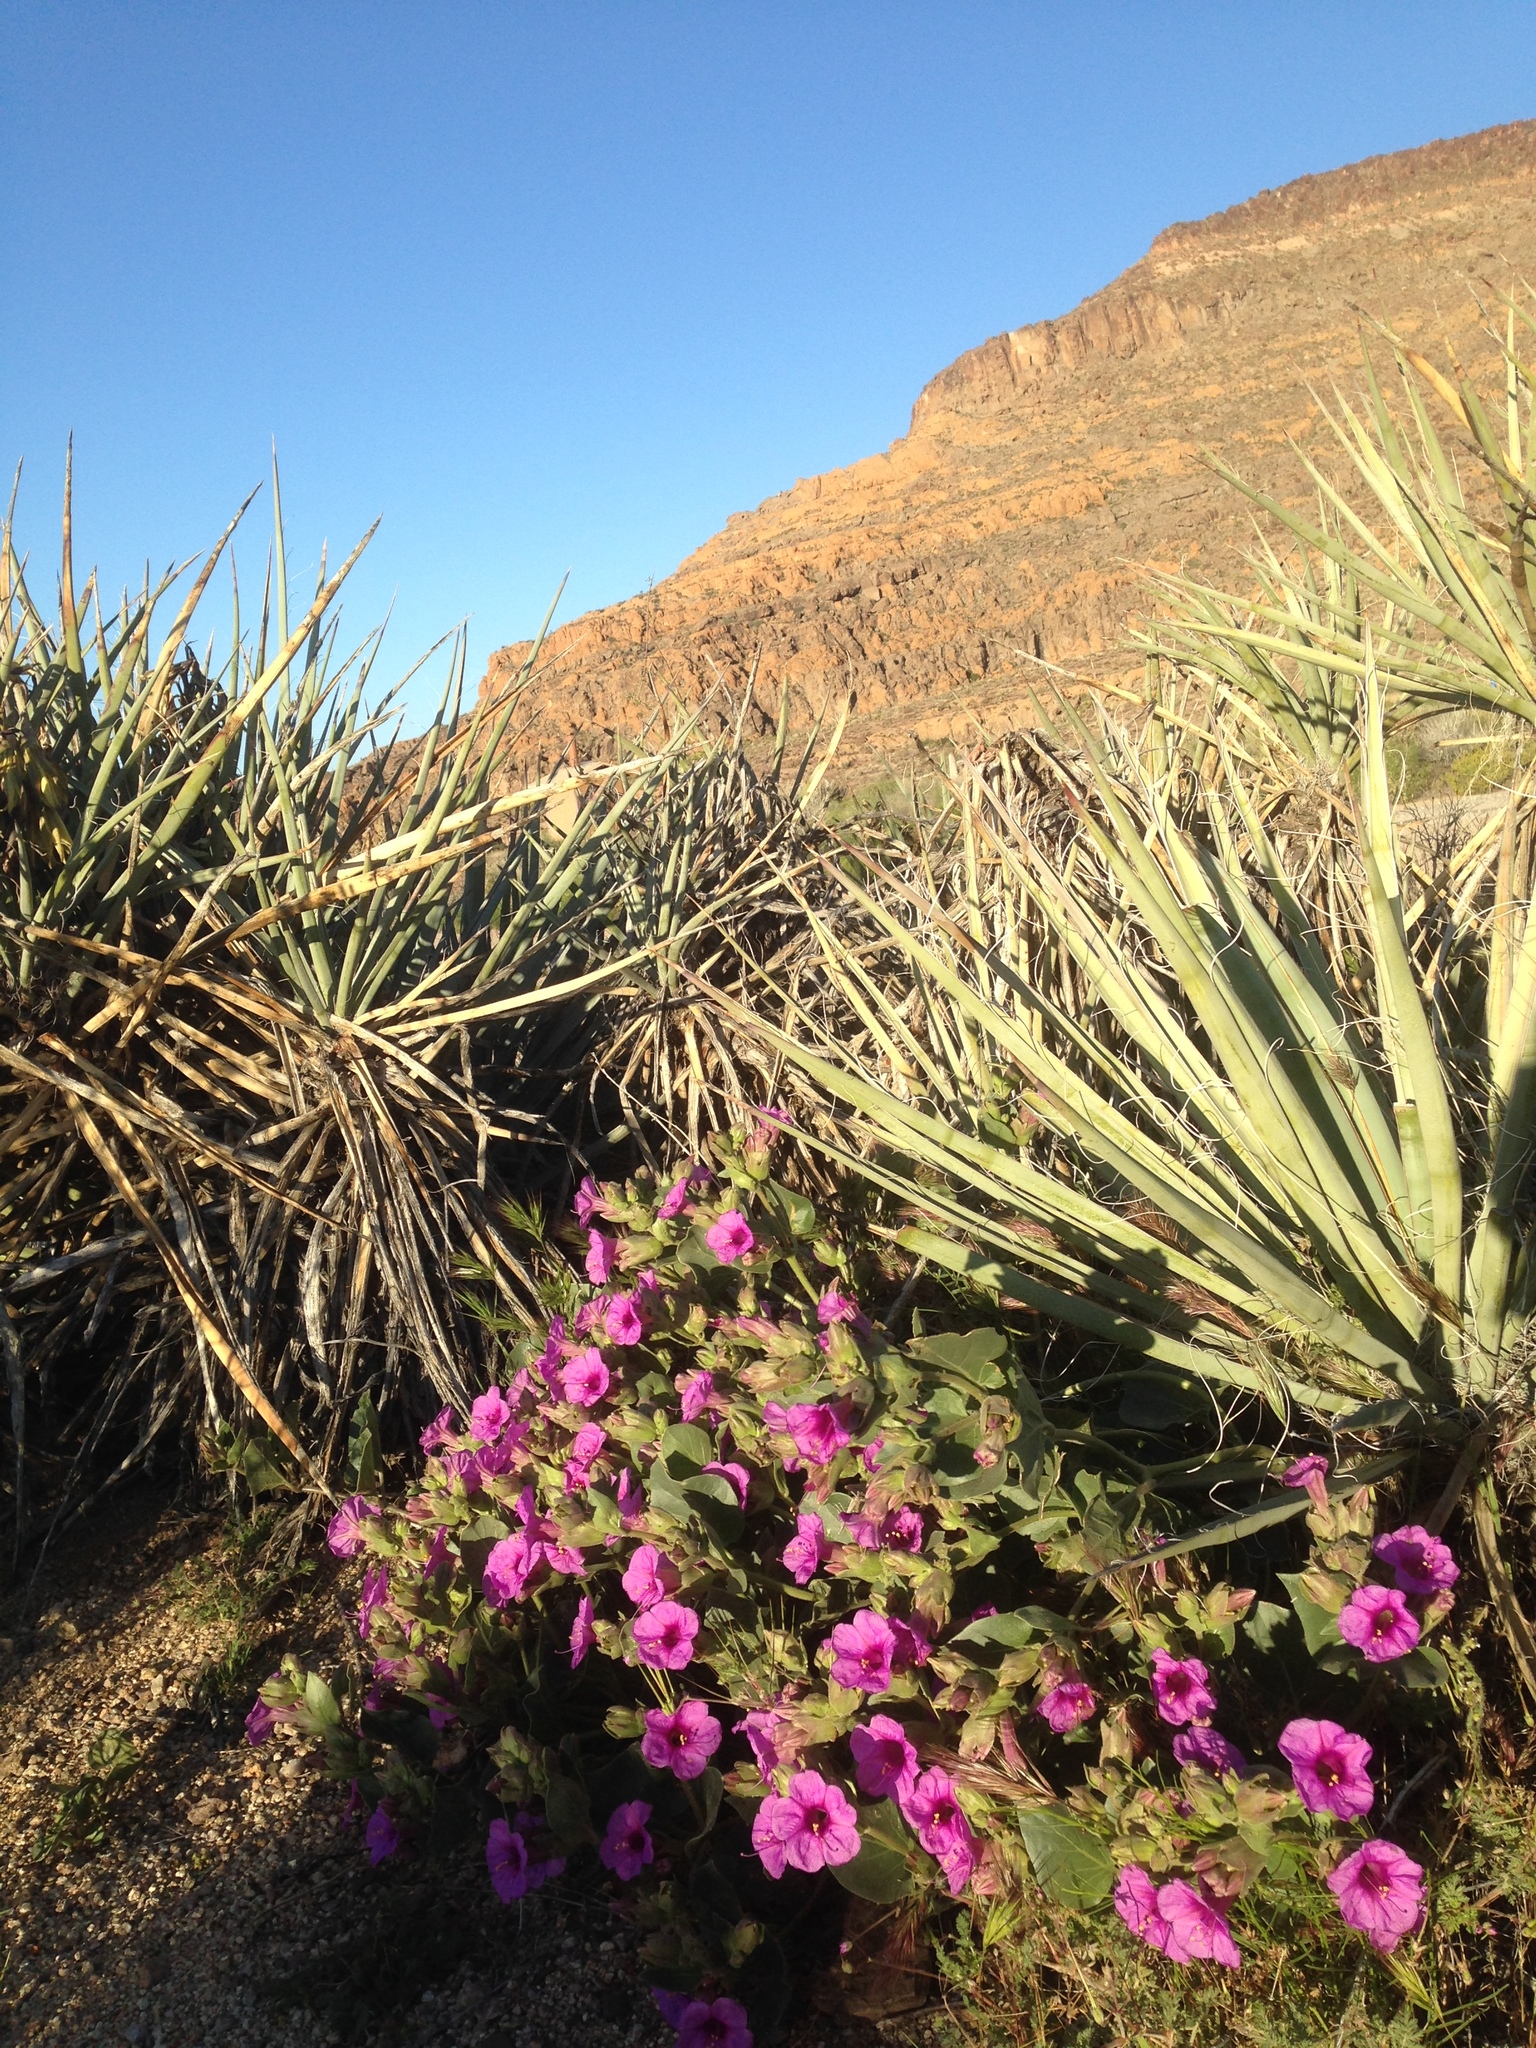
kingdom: Plantae
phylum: Tracheophyta
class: Magnoliopsida
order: Caryophyllales
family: Nyctaginaceae
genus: Mirabilis
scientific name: Mirabilis multiflora
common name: Froebel's four-o'clock
